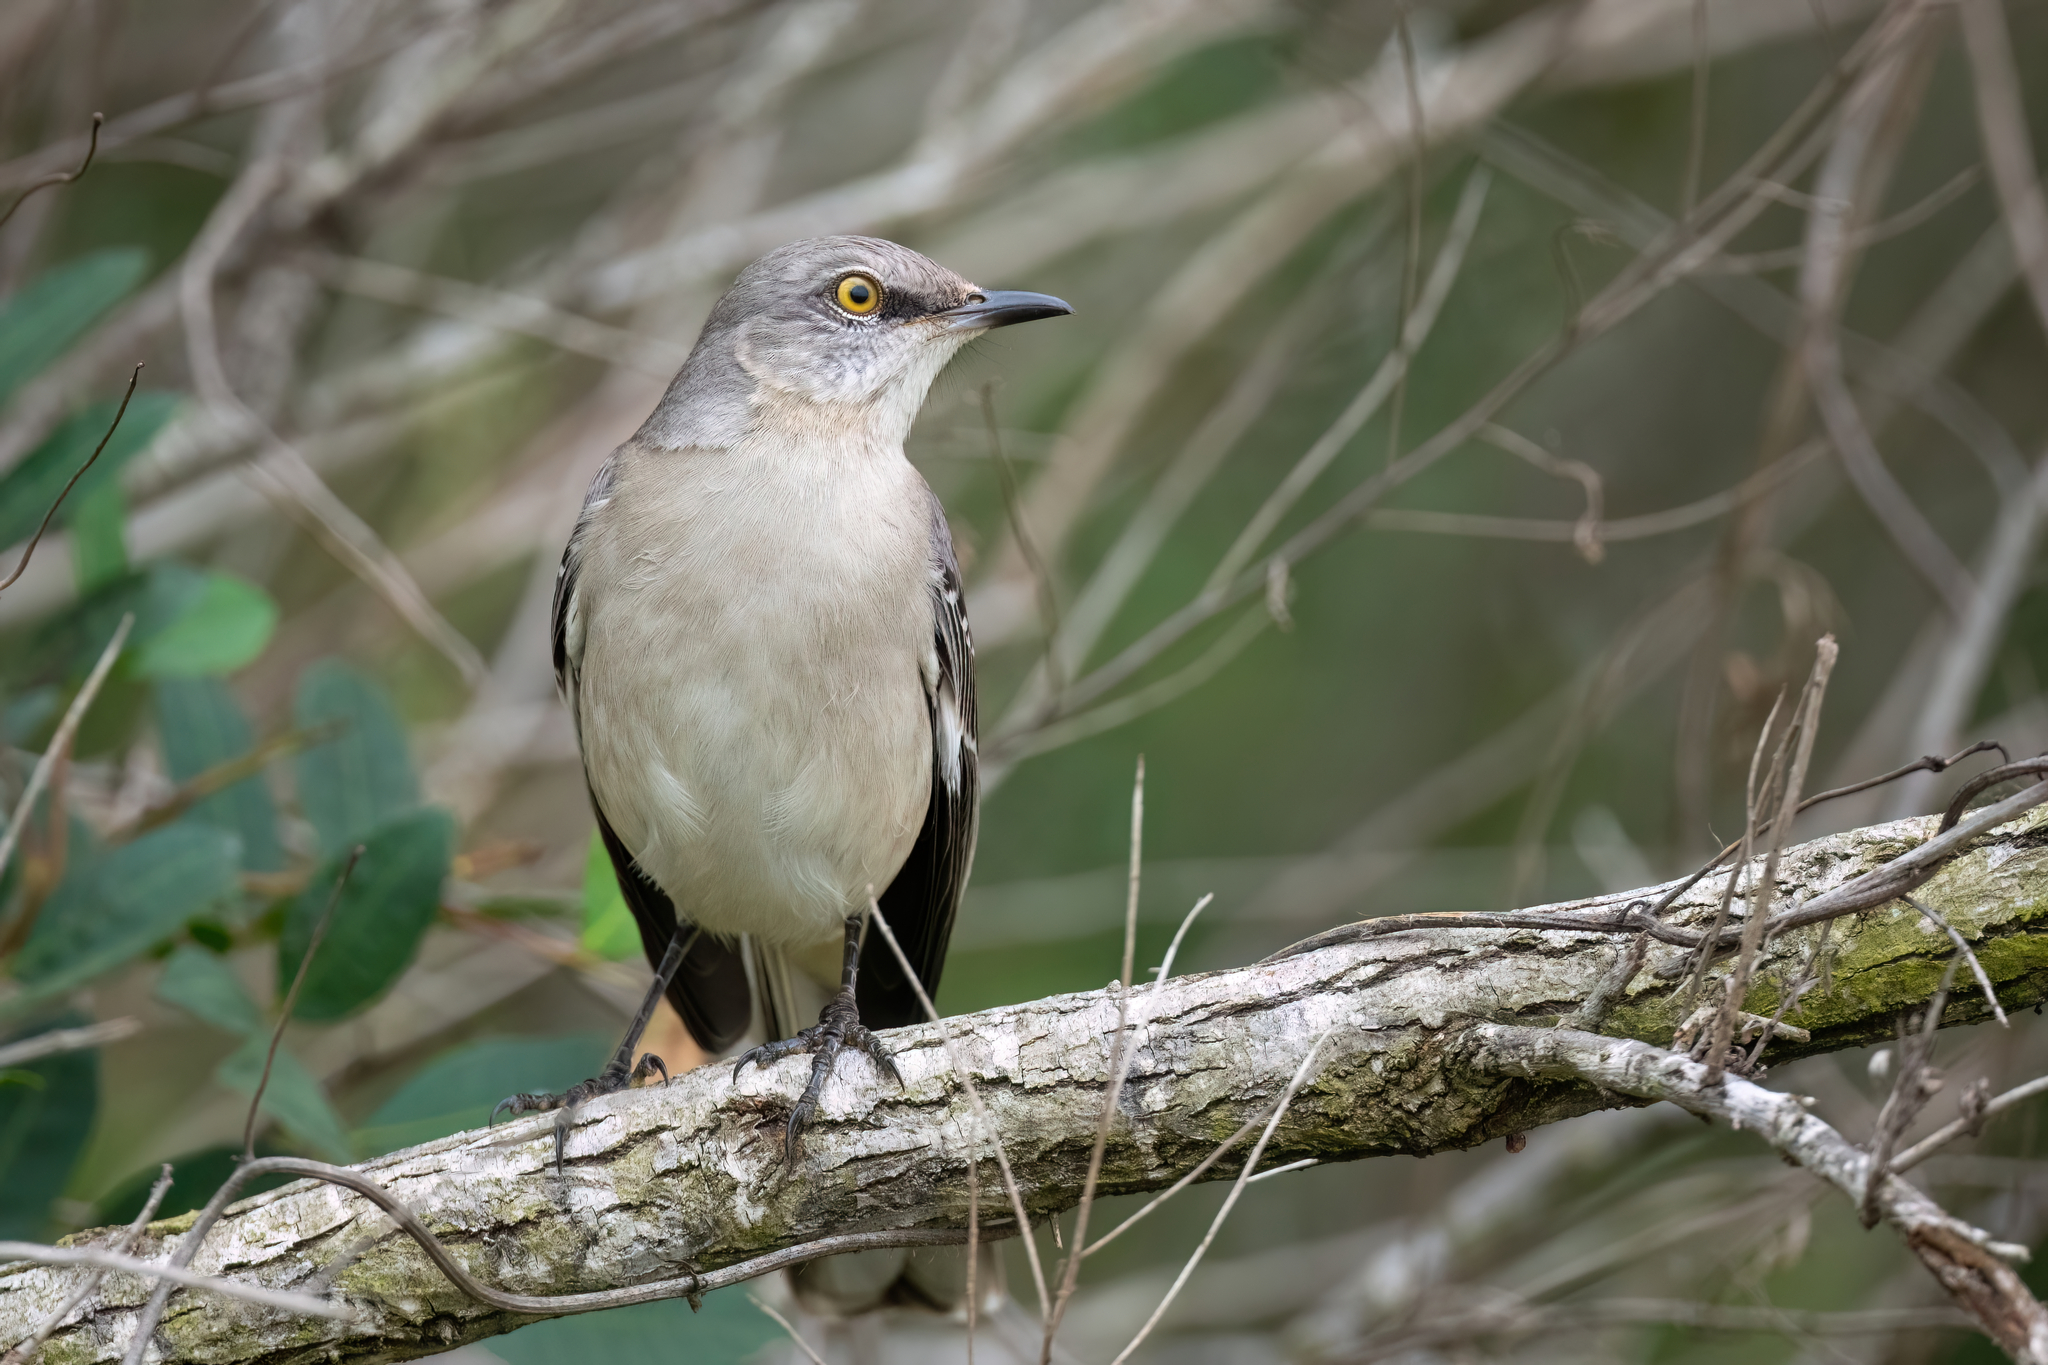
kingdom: Animalia
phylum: Chordata
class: Aves
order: Passeriformes
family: Mimidae
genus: Mimus
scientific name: Mimus polyglottos
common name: Northern mockingbird
